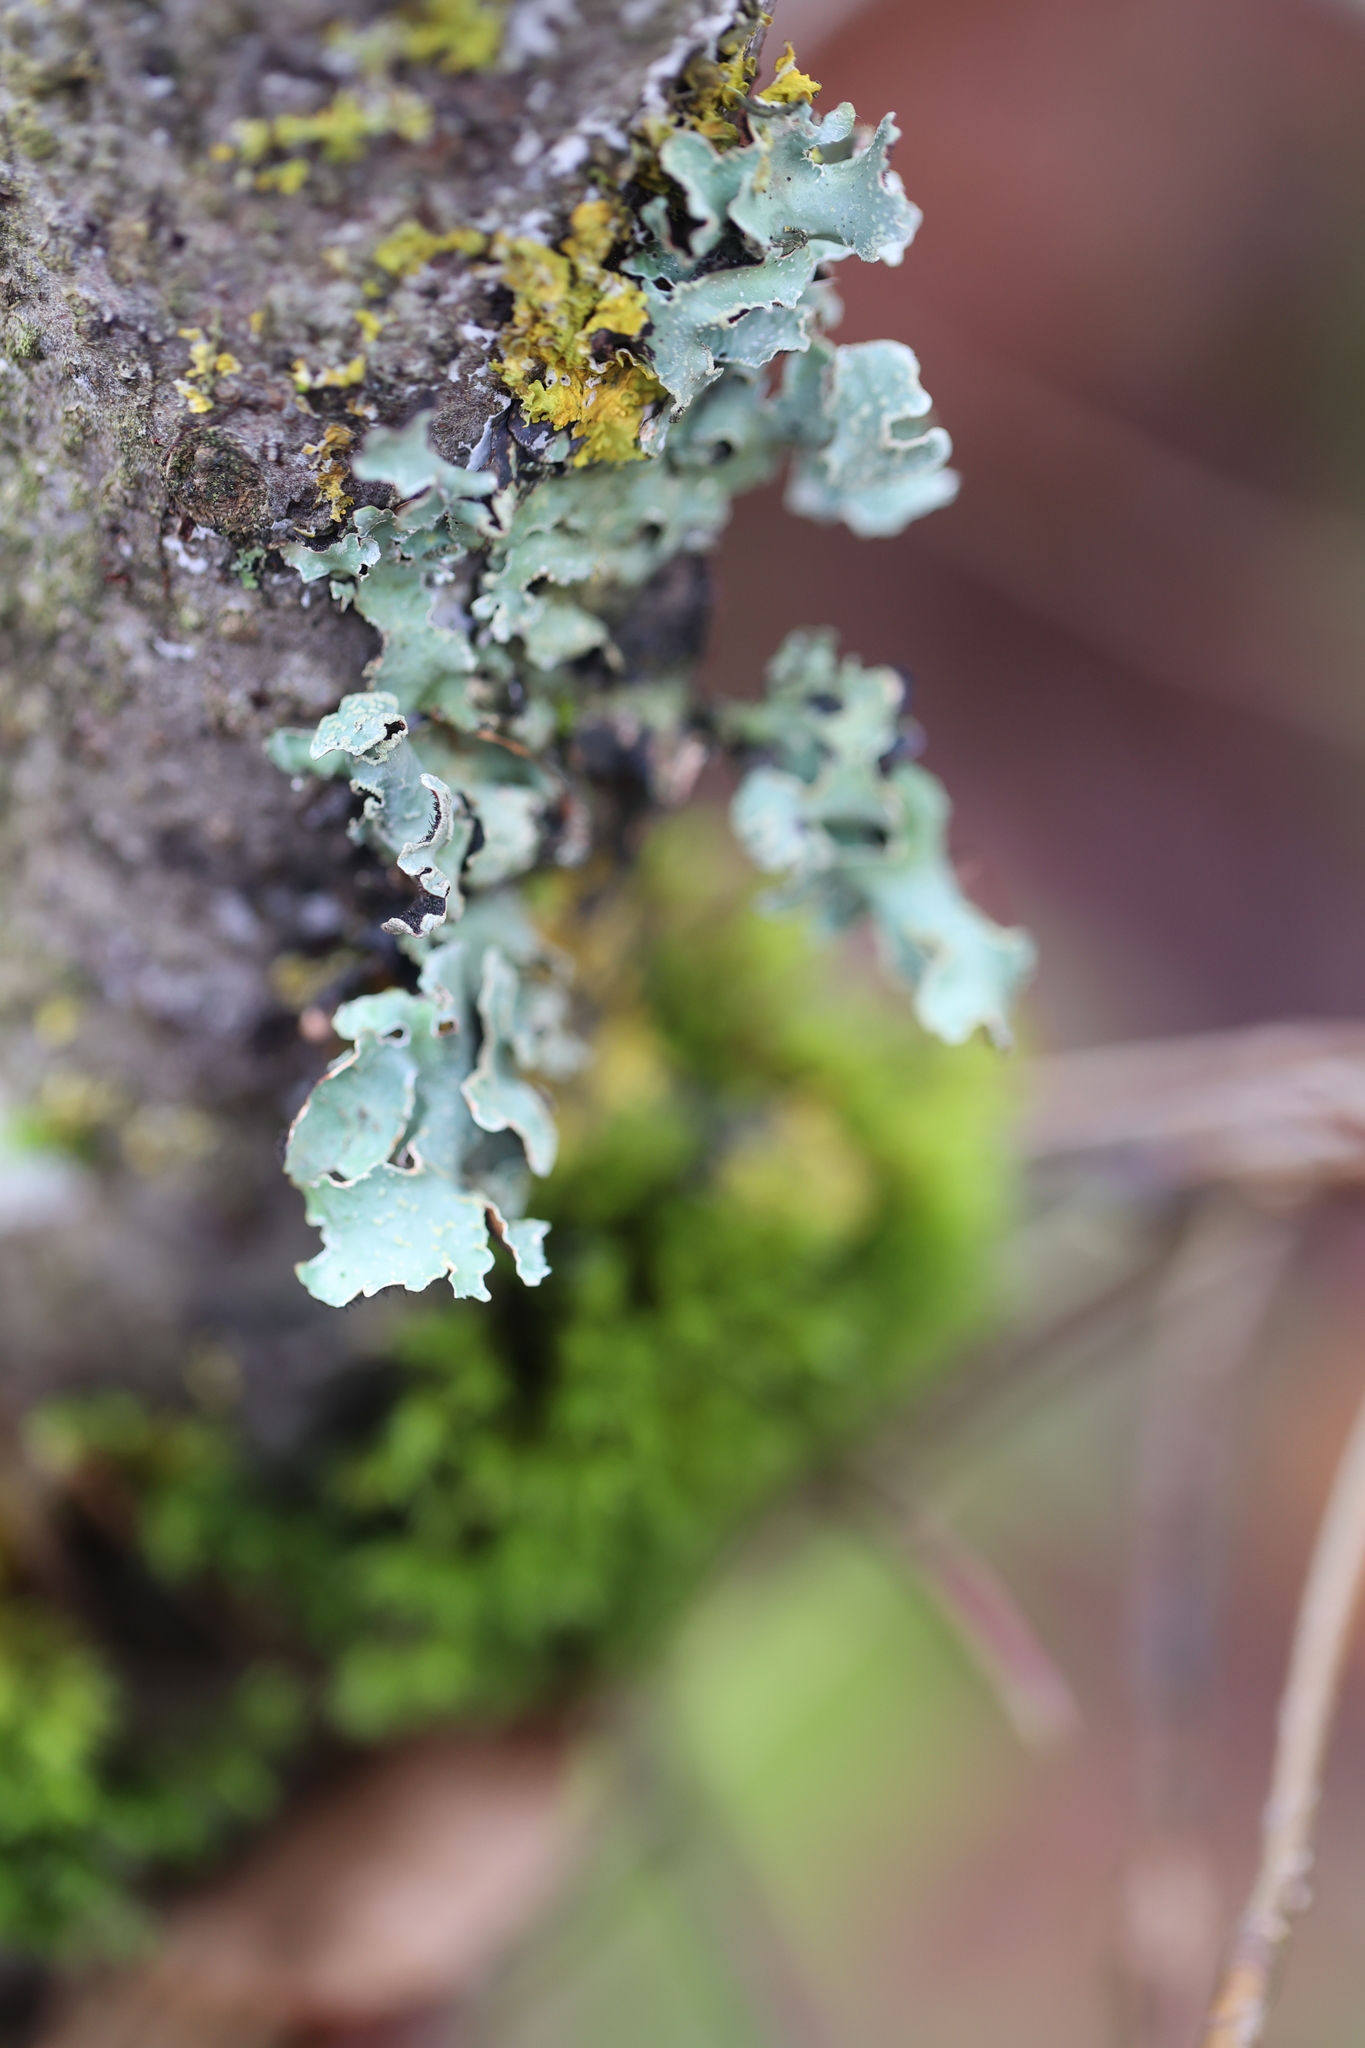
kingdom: Fungi
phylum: Ascomycota
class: Lecanoromycetes
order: Lecanorales
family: Parmeliaceae
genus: Parmelia
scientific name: Parmelia sulcata
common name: Netted shield lichen
